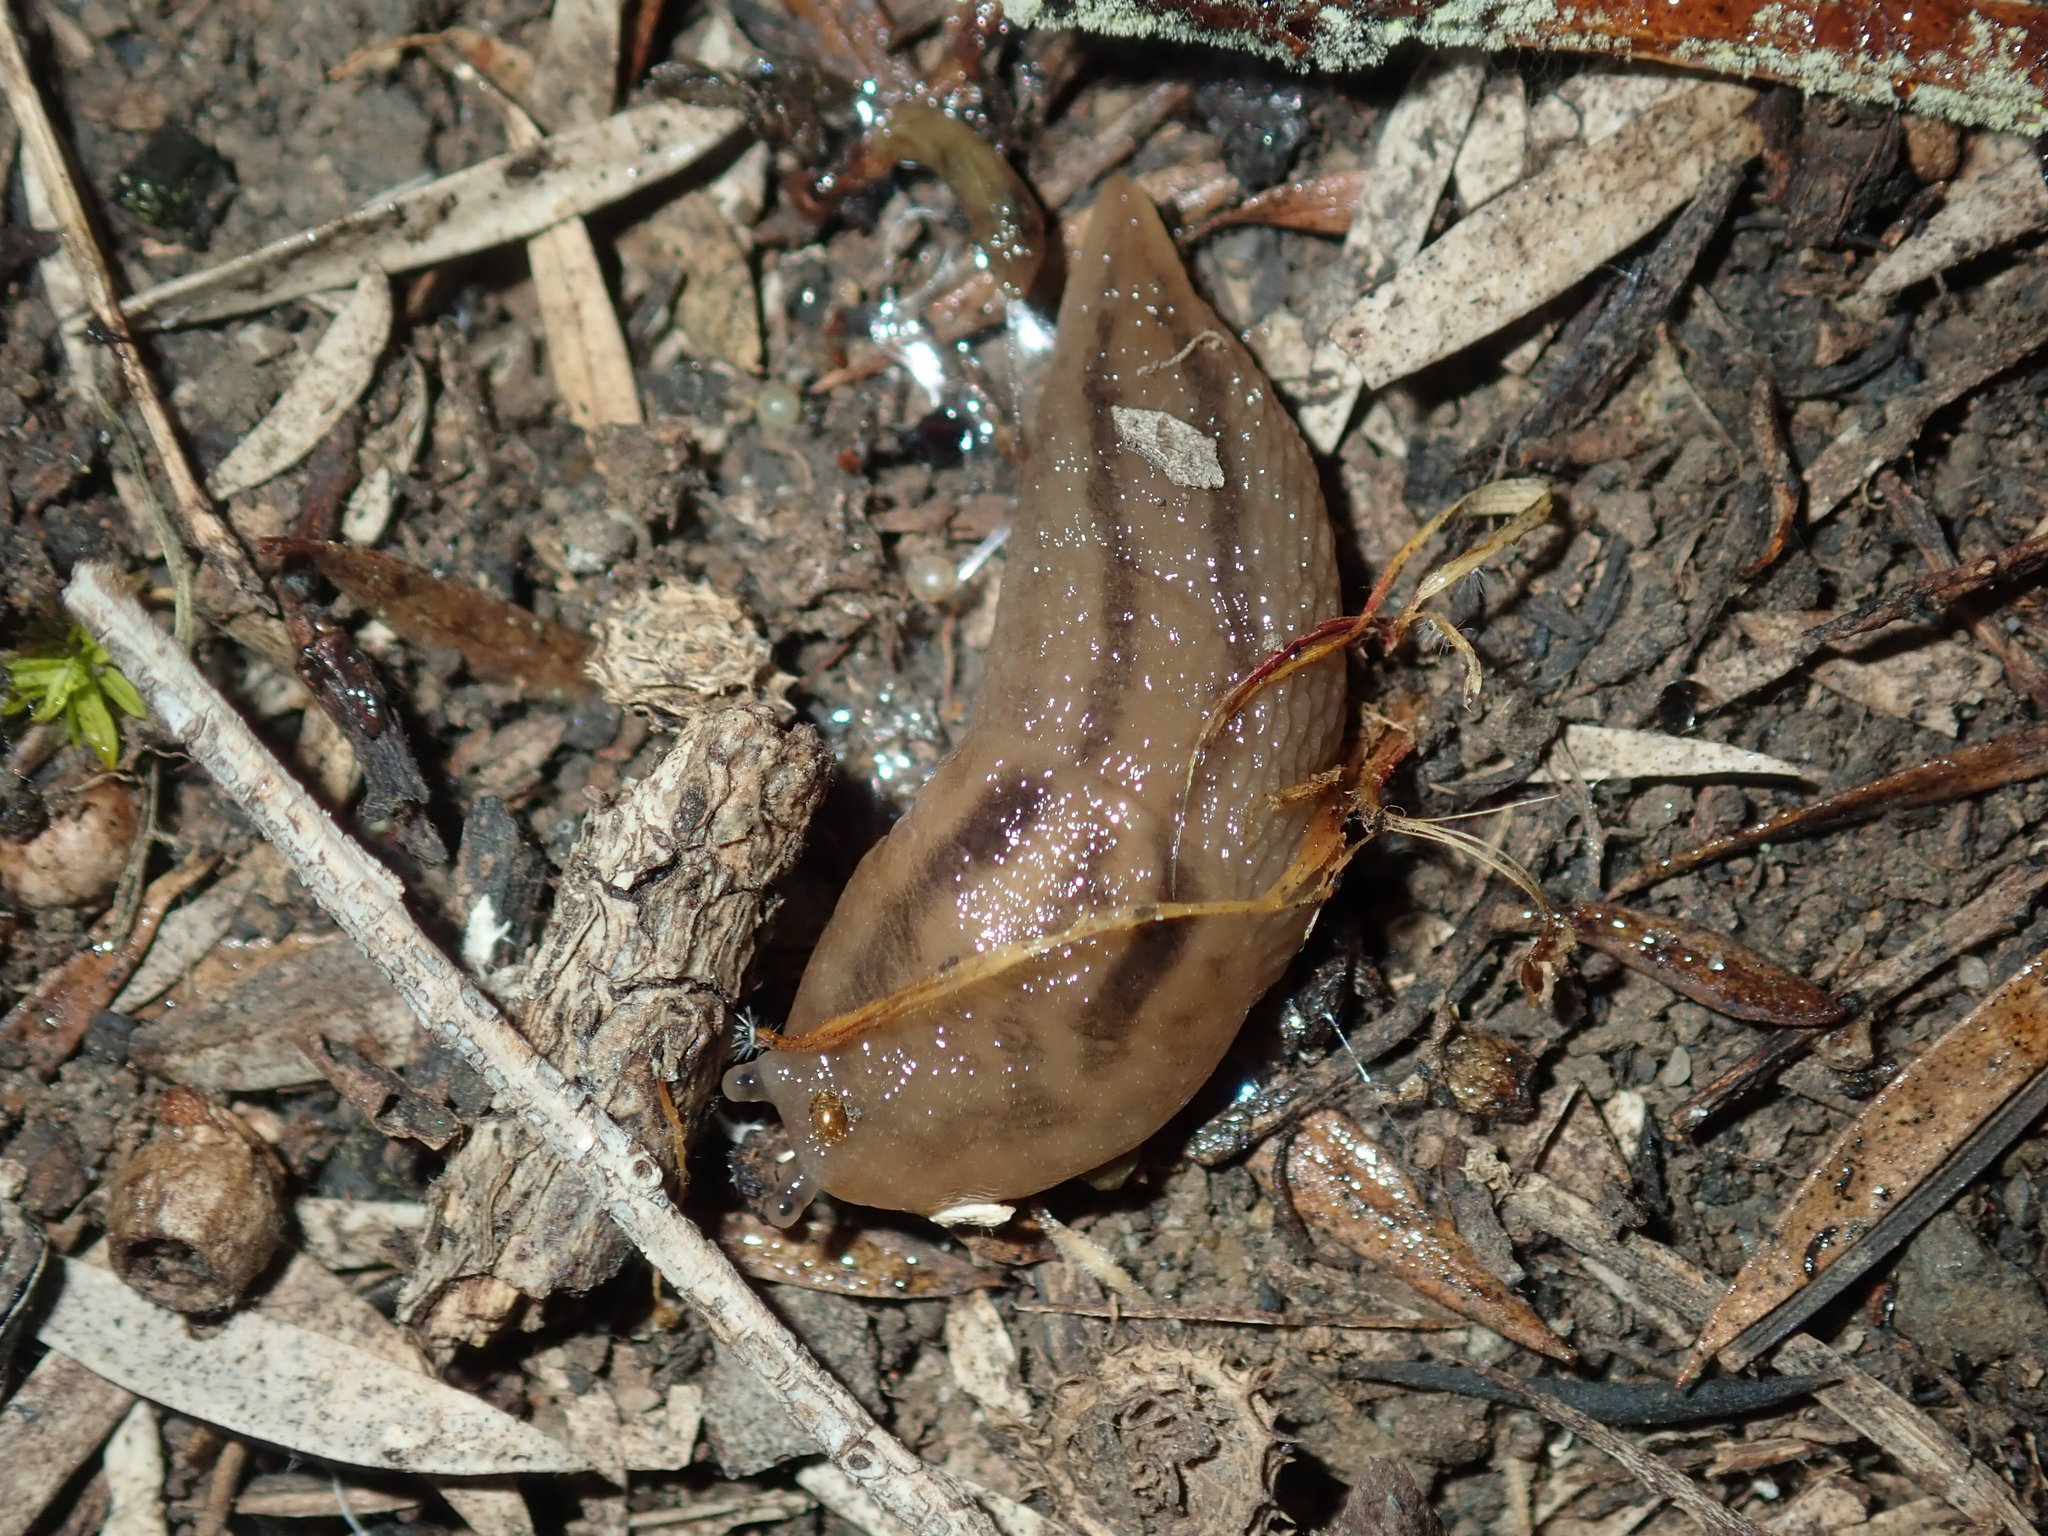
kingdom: Animalia
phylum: Mollusca
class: Gastropoda
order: Stylommatophora
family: Limacidae
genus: Ambigolimax
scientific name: Ambigolimax
